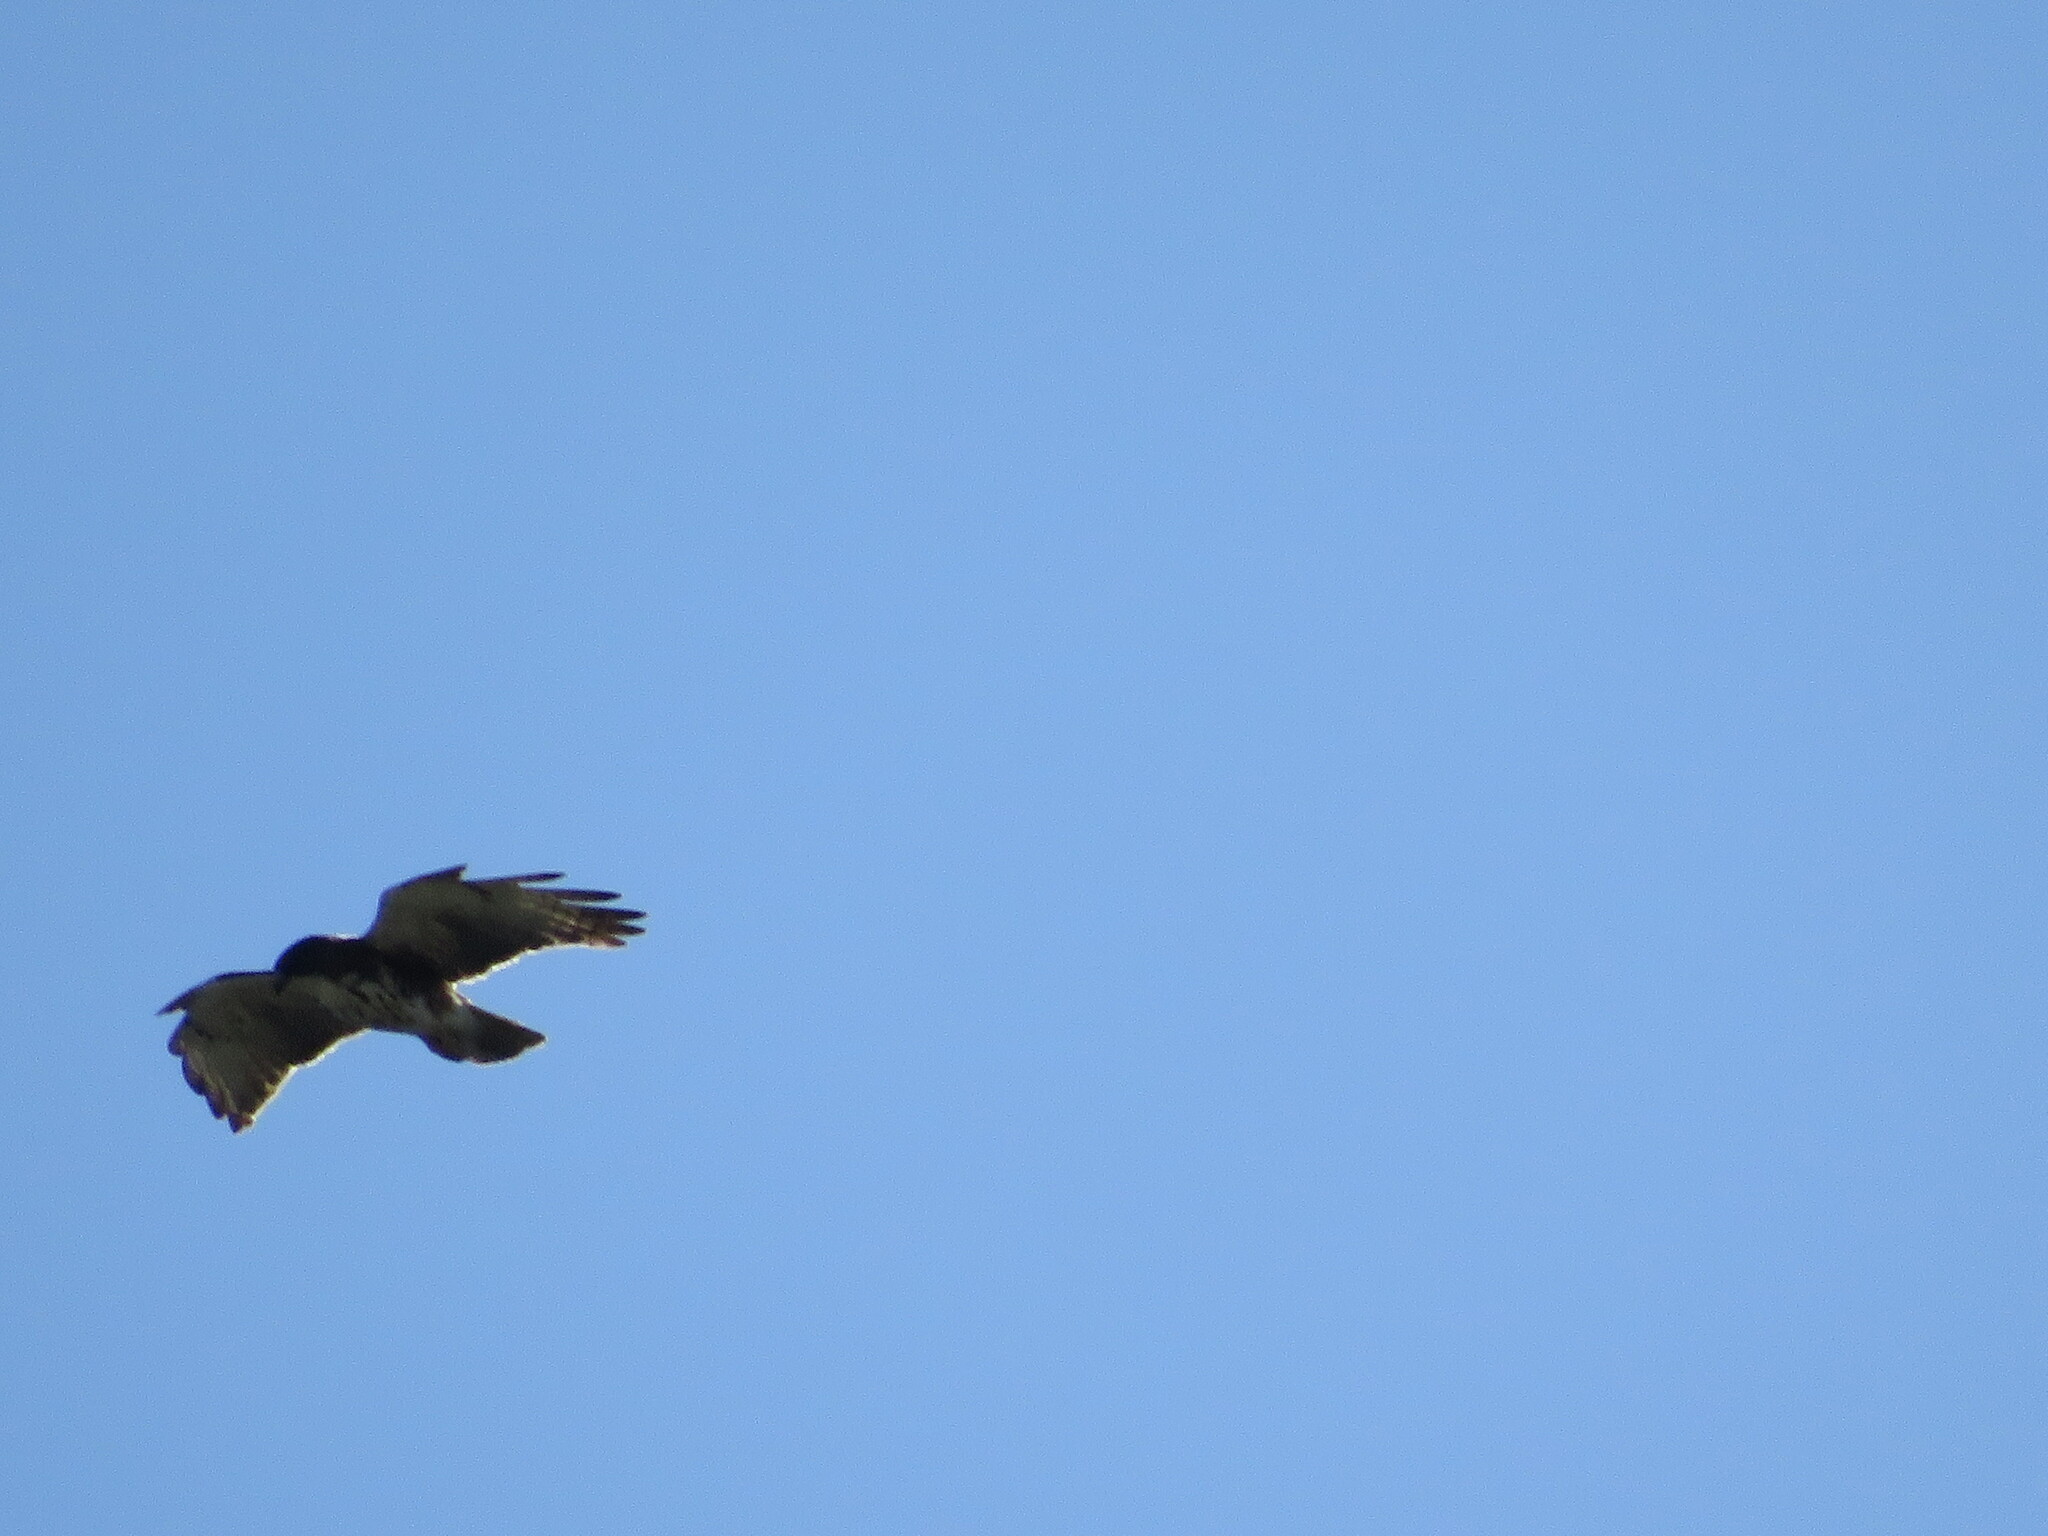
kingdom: Animalia
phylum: Chordata
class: Aves
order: Accipitriformes
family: Accipitridae
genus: Buteo
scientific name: Buteo albigula
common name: White-throated hawk
